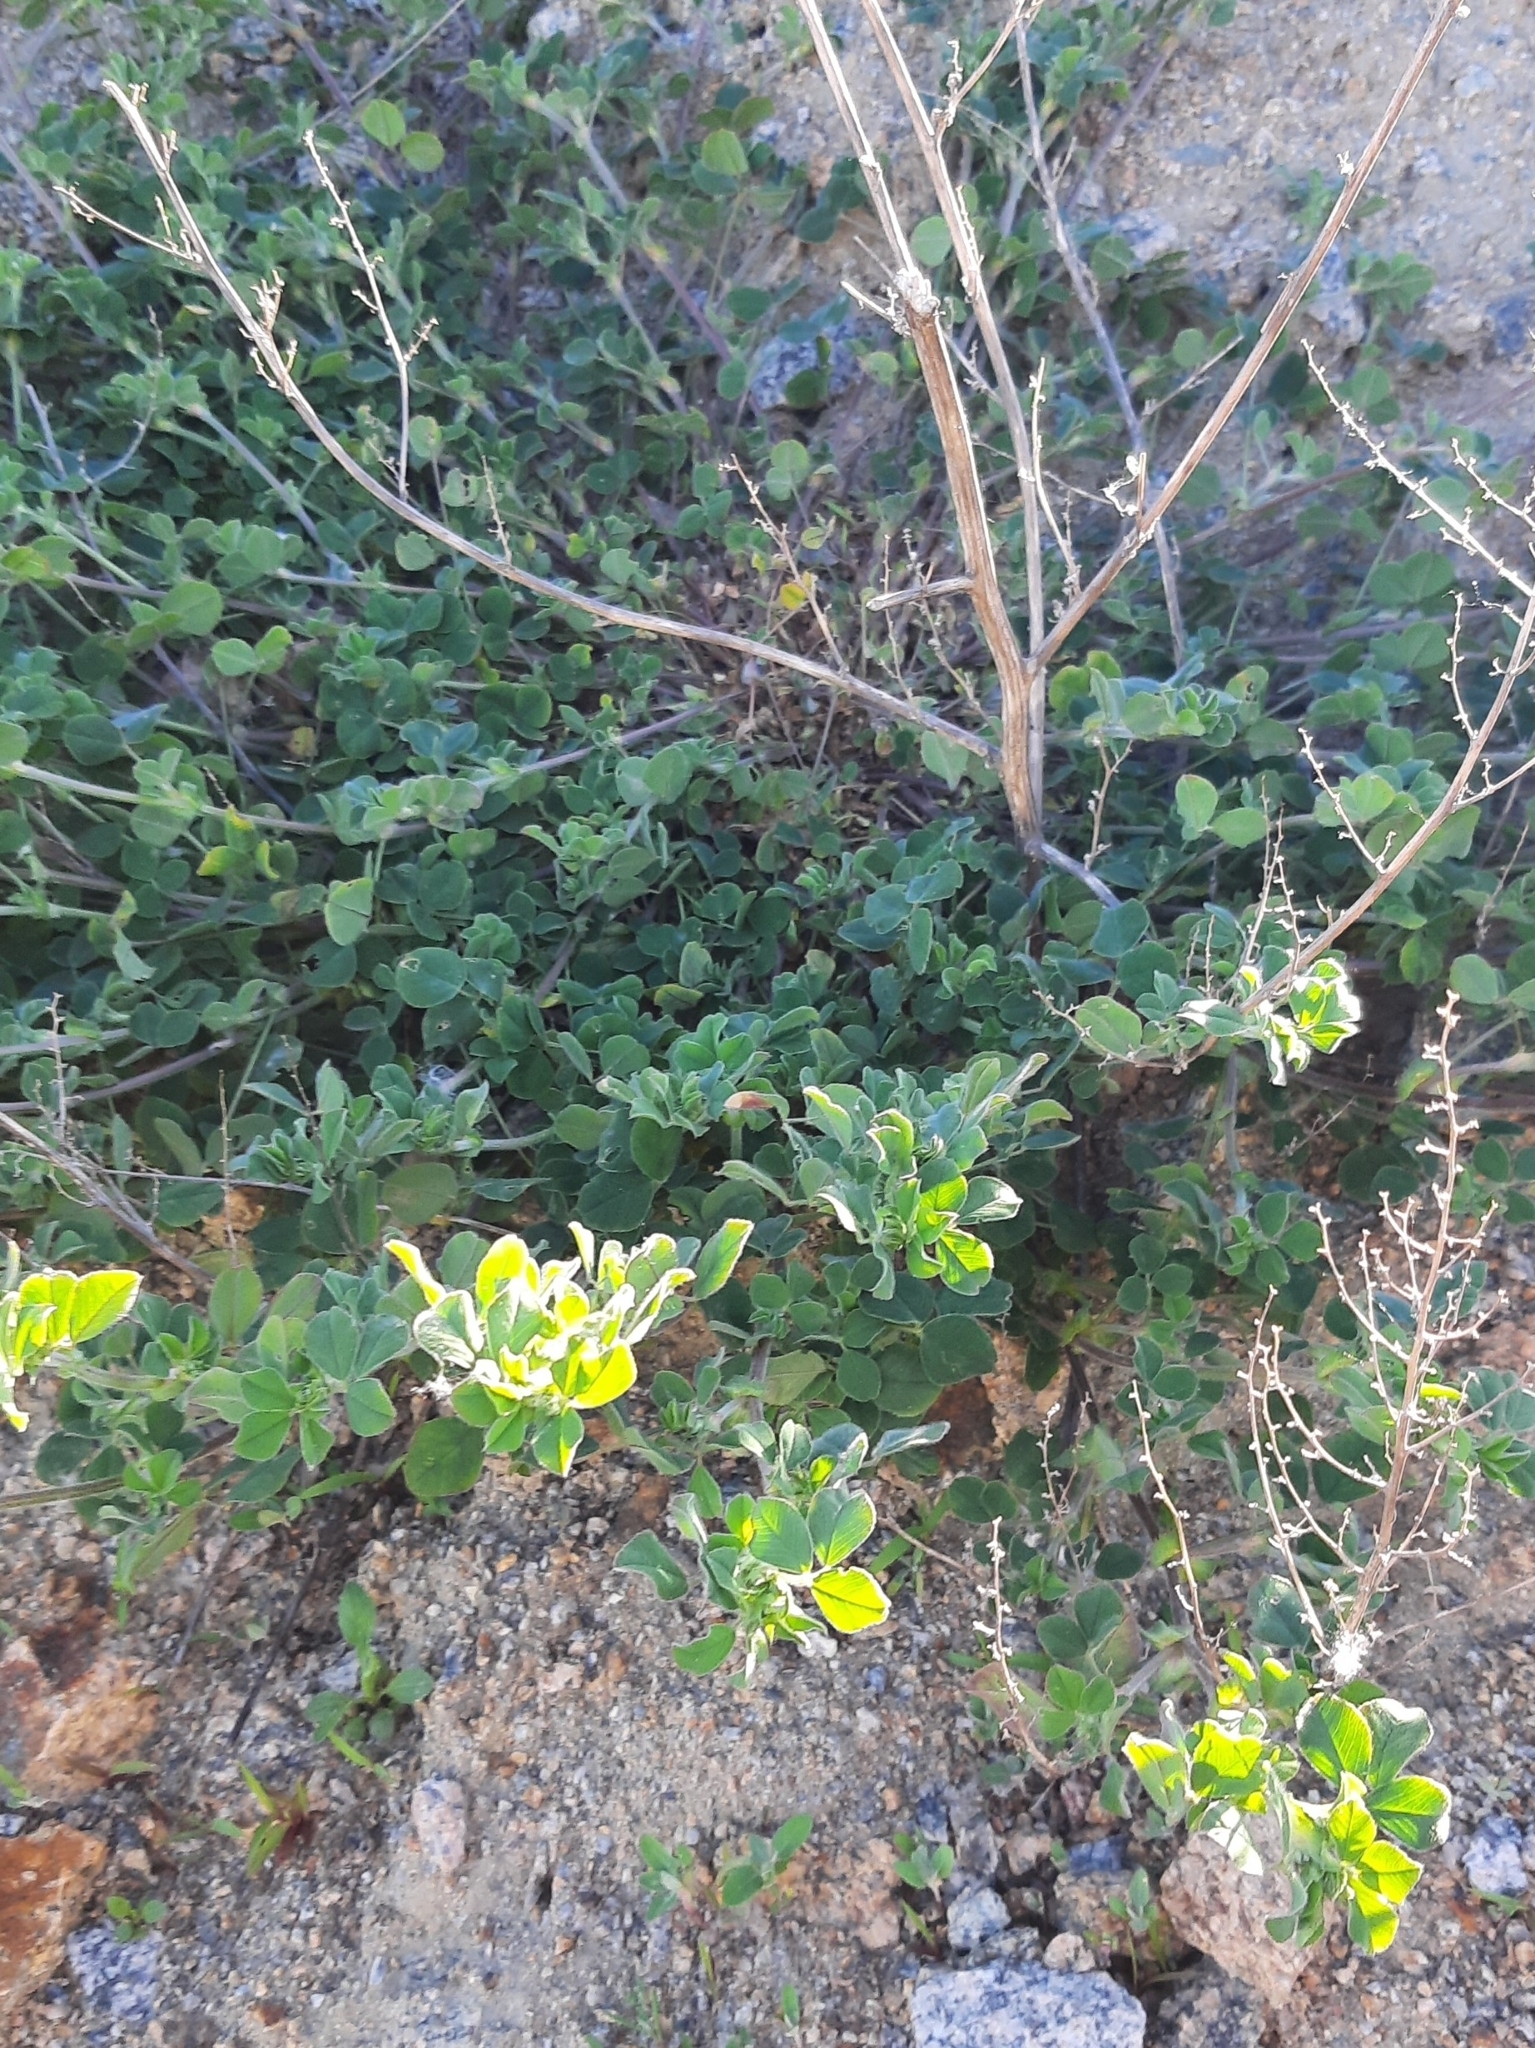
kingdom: Plantae
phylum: Tracheophyta
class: Magnoliopsida
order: Fabales
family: Fabaceae
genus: Medicago
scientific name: Medicago lupulina
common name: Black medick
